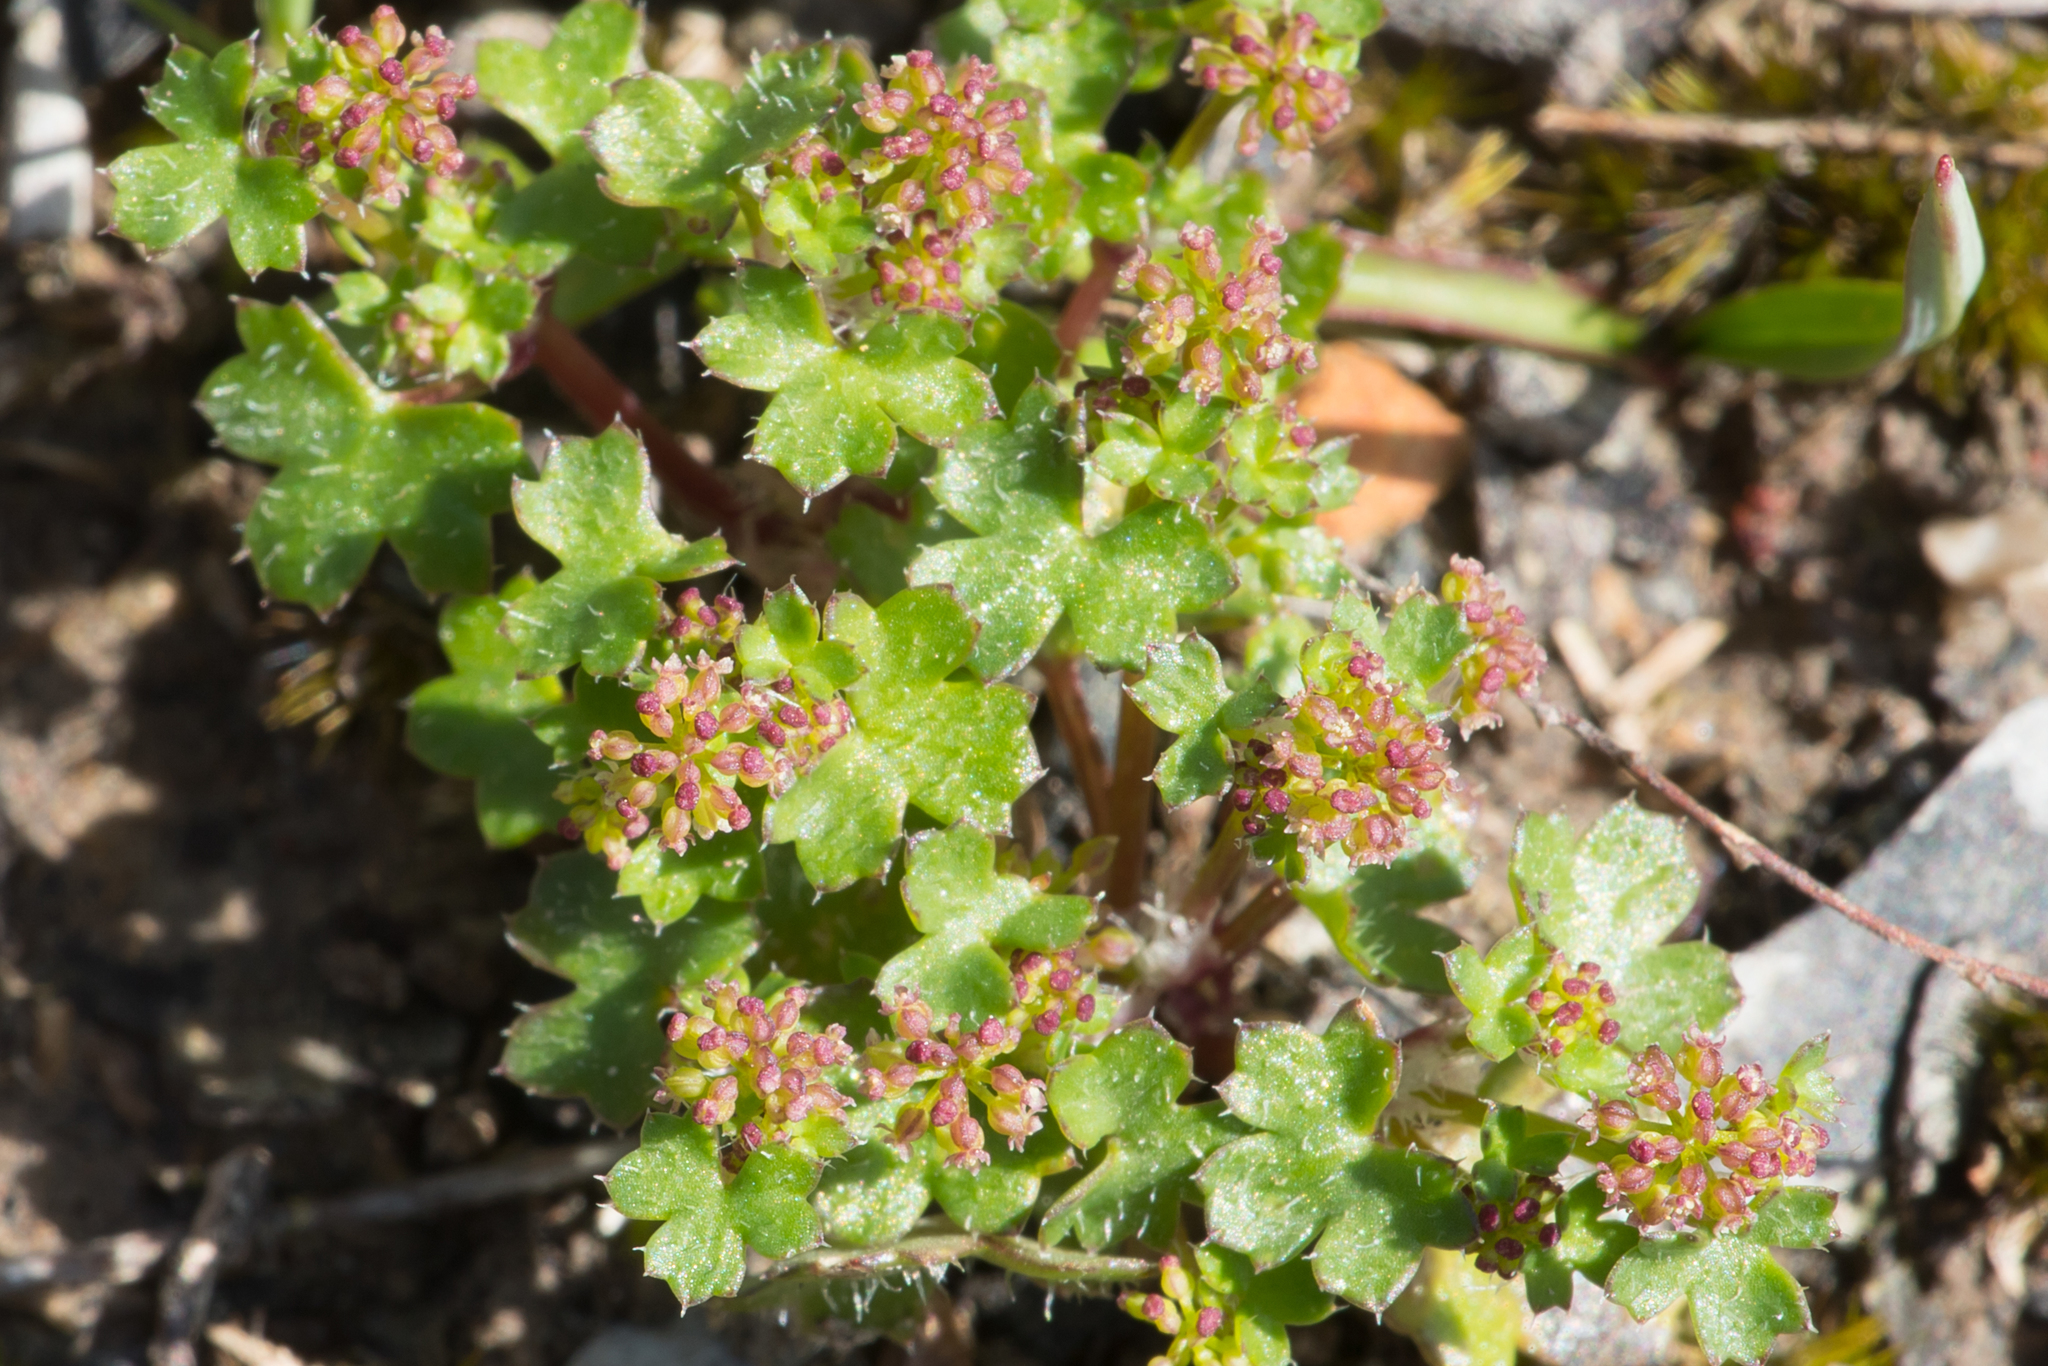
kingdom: Plantae
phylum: Tracheophyta
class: Magnoliopsida
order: Apiales
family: Araliaceae
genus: Hydrocotyle
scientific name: Hydrocotyle callicarpa
